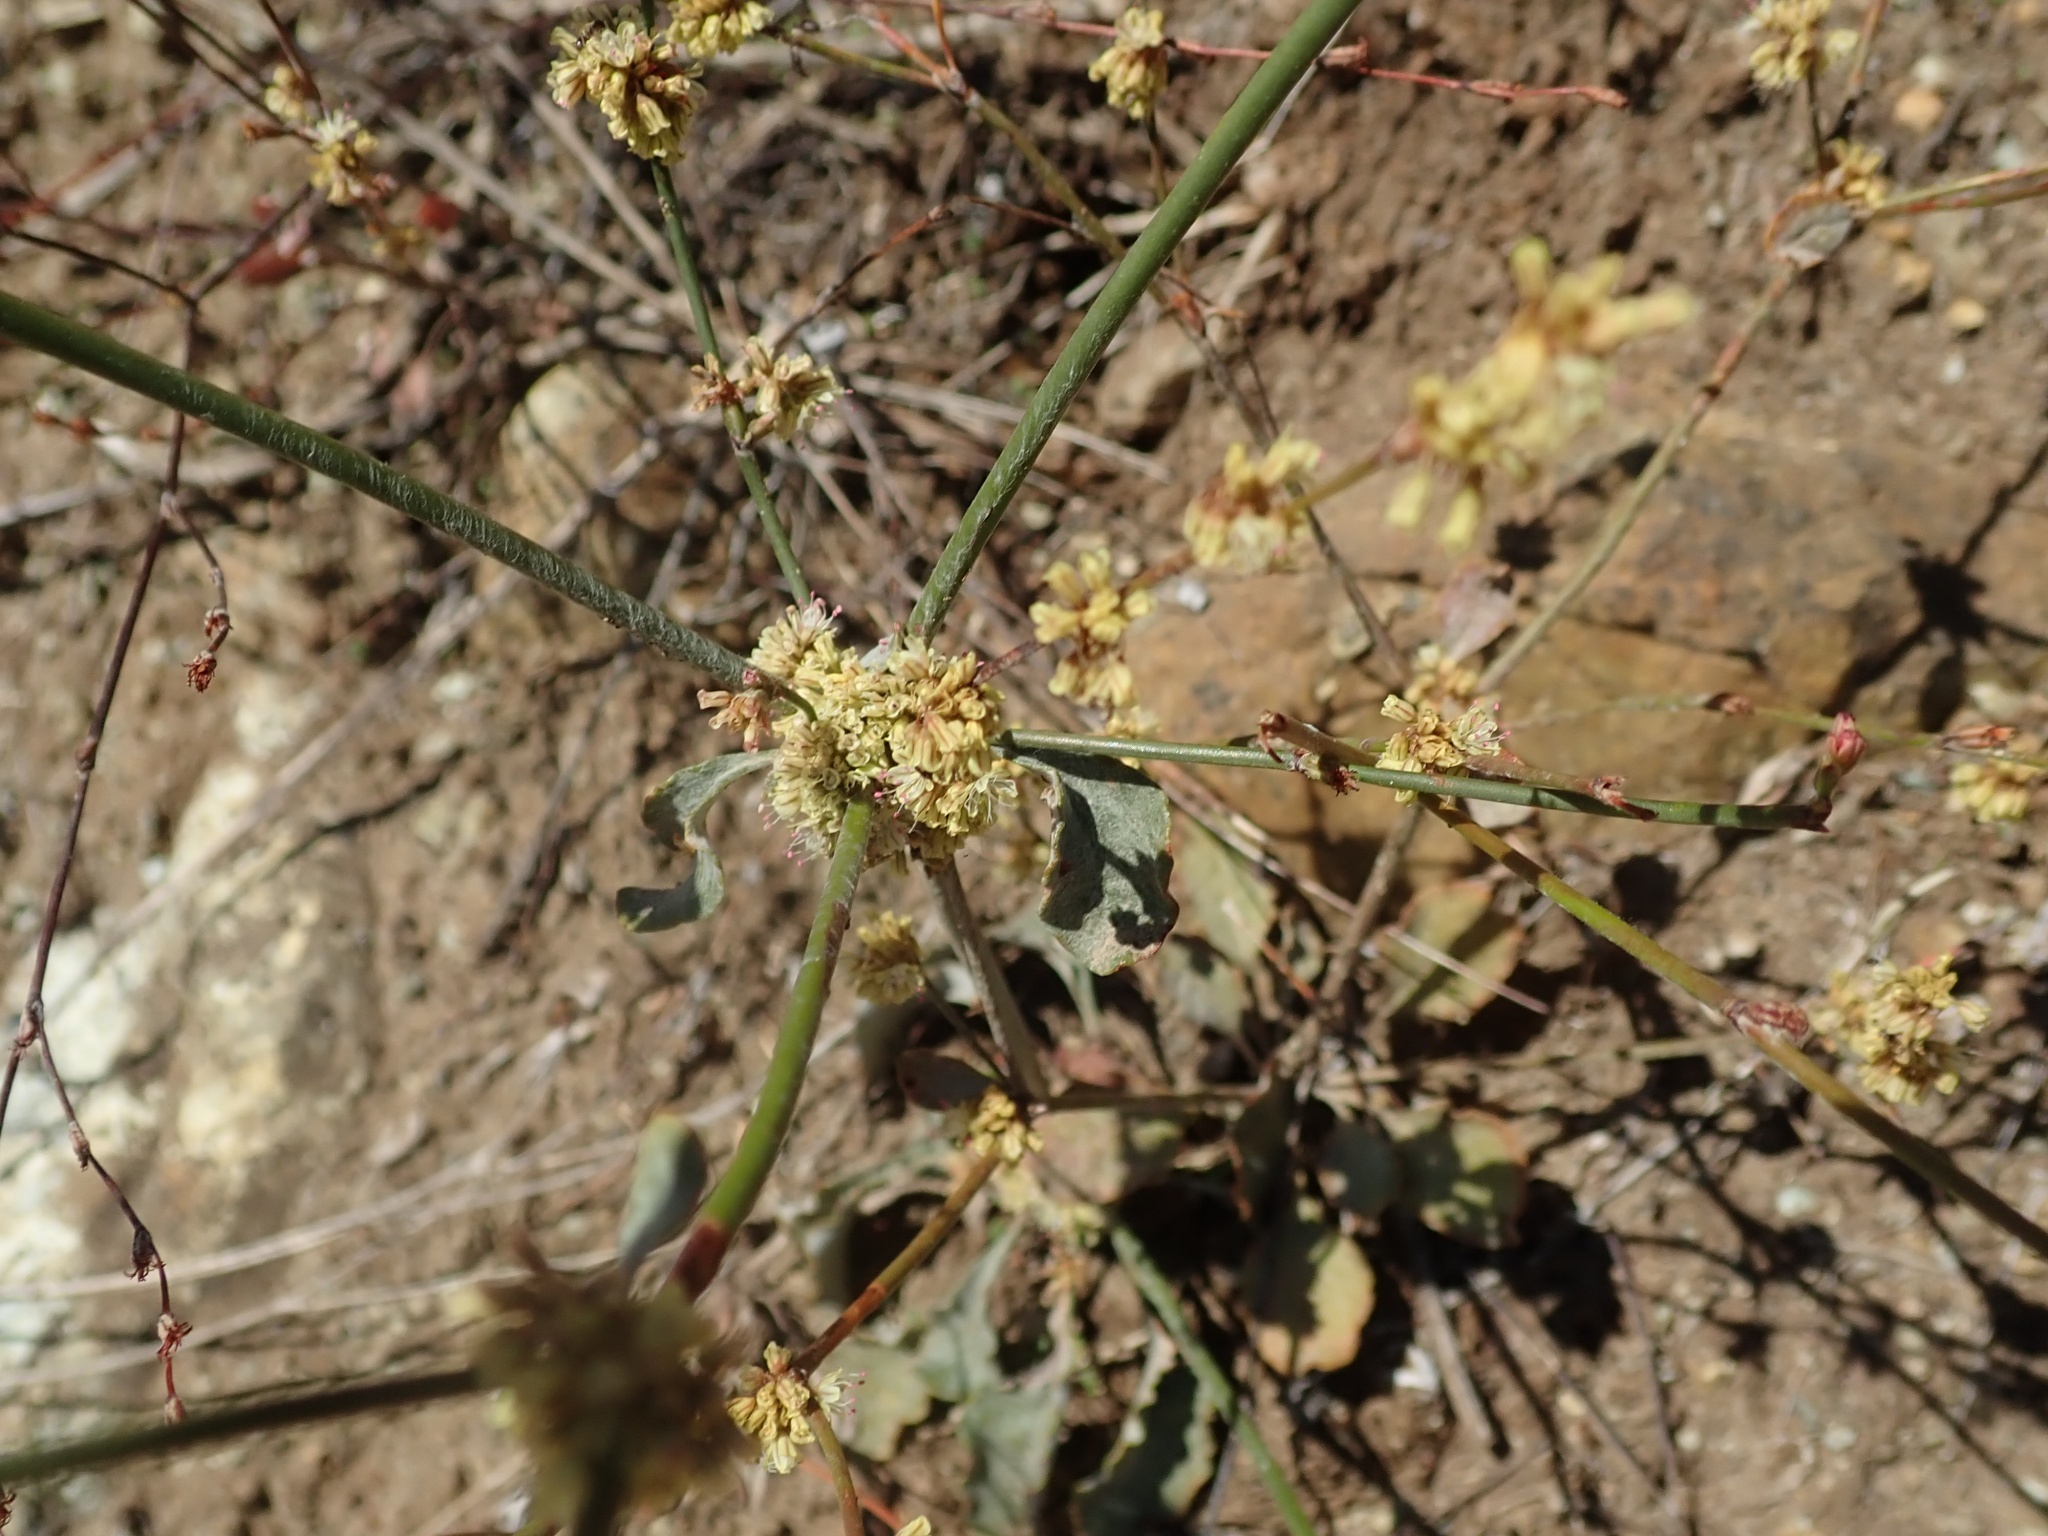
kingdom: Plantae
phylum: Tracheophyta
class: Magnoliopsida
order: Caryophyllales
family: Polygonaceae
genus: Eriogonum
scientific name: Eriogonum luteolum
